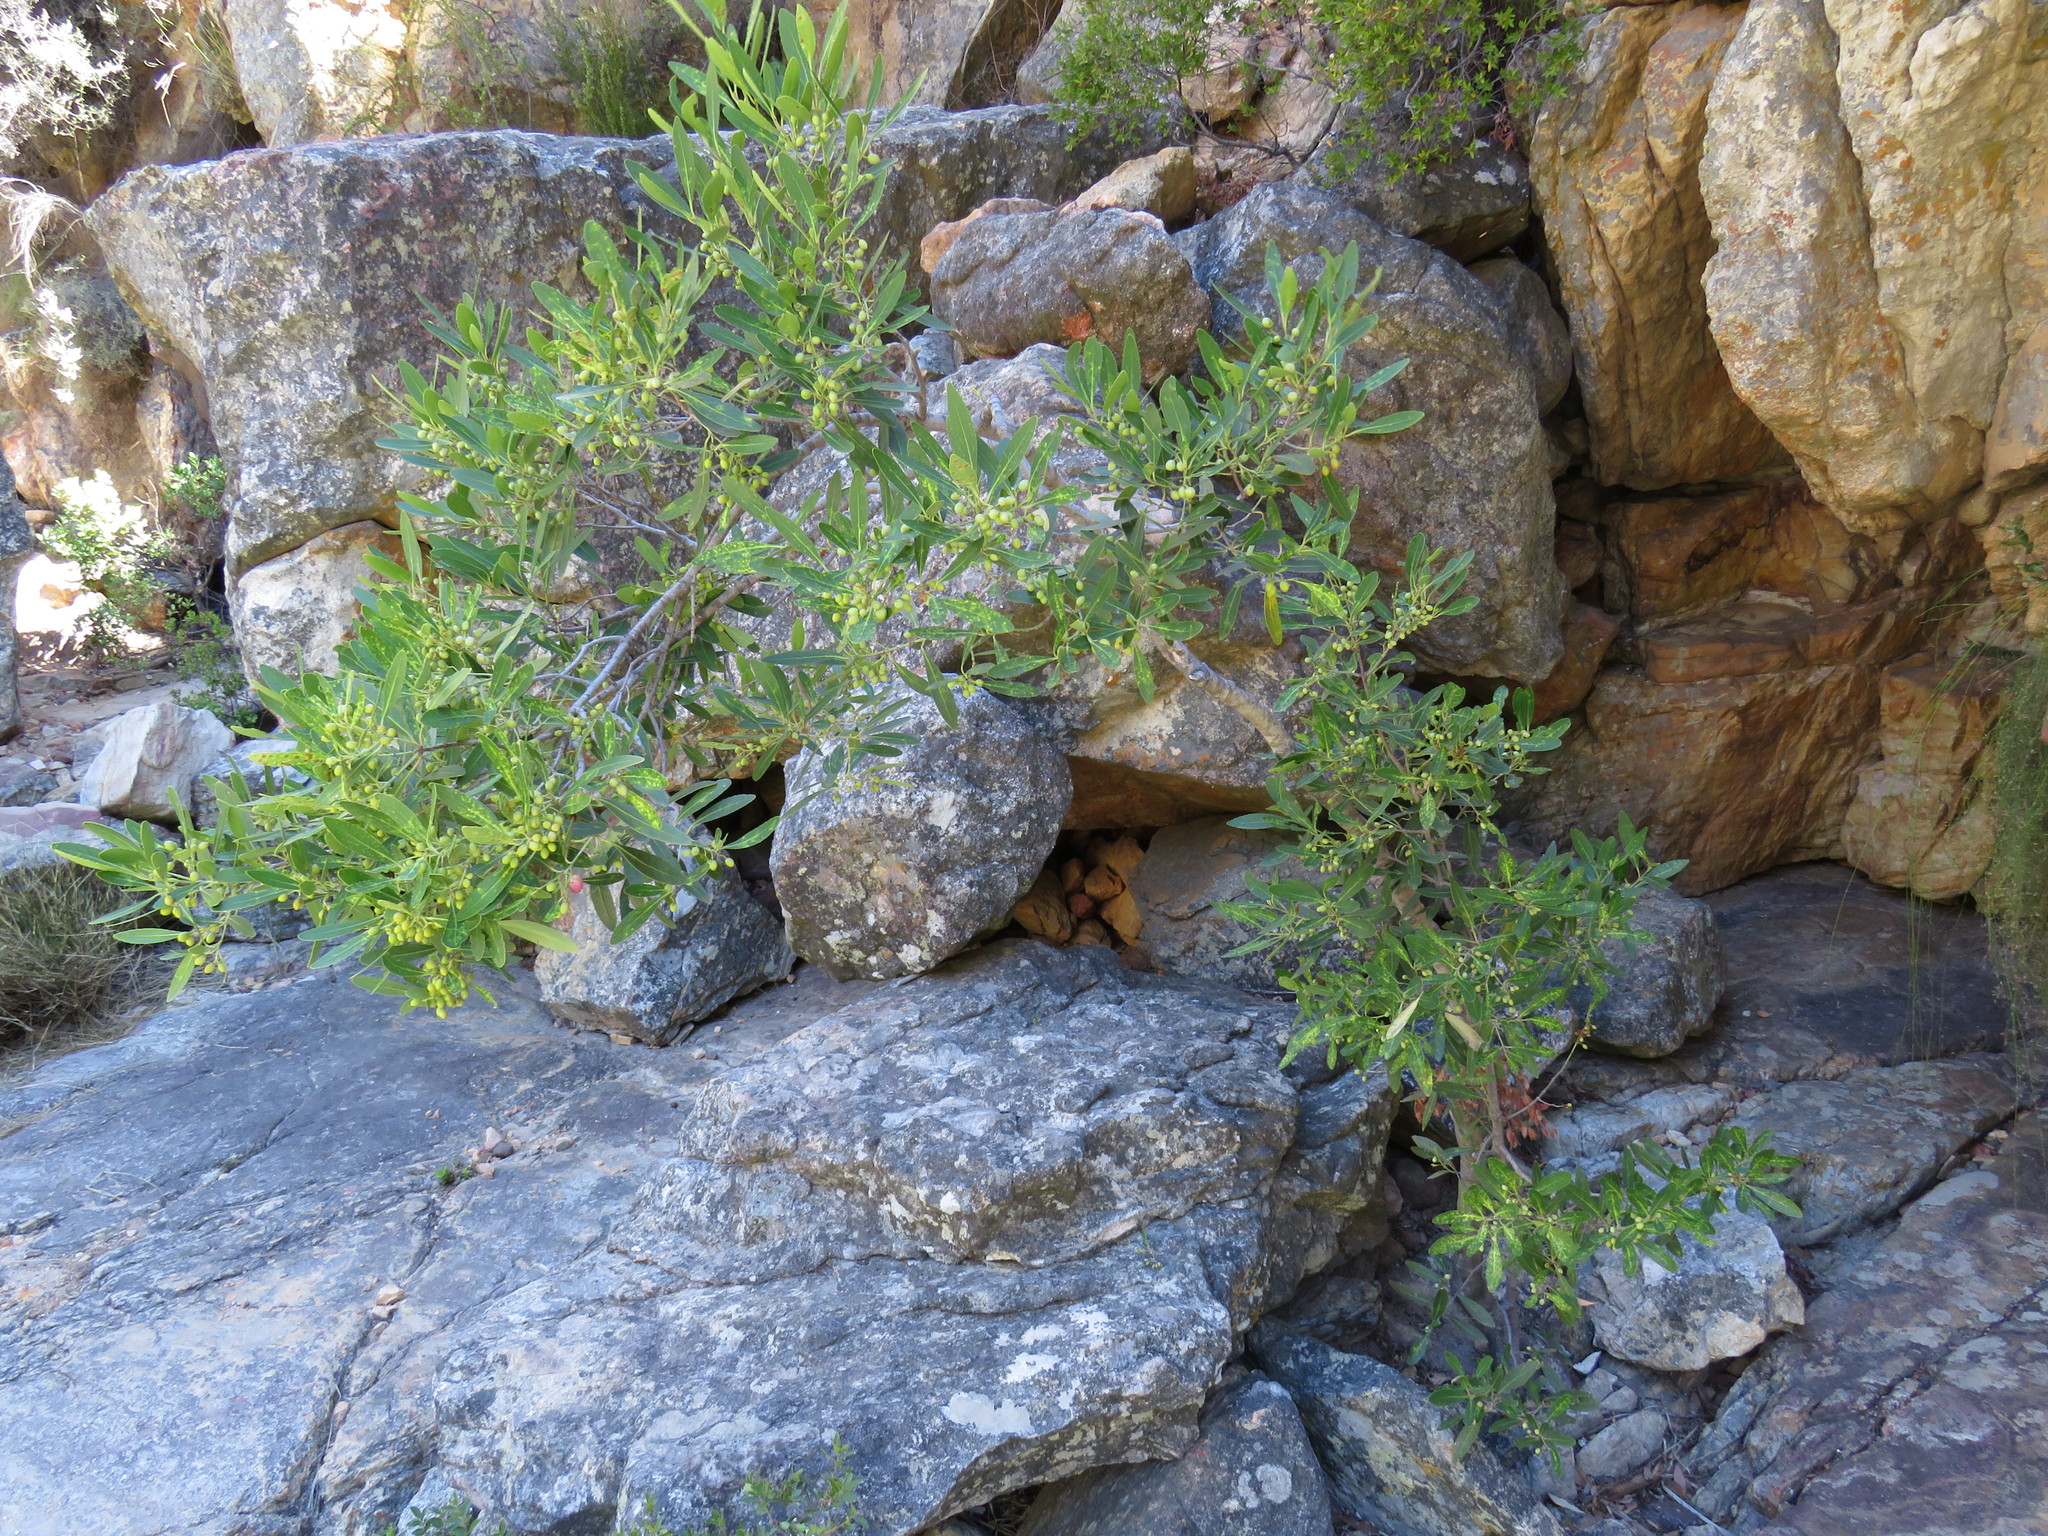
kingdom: Plantae
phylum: Tracheophyta
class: Magnoliopsida
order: Celastrales
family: Celastraceae
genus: Elaeodendron
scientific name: Elaeodendron schinoides
